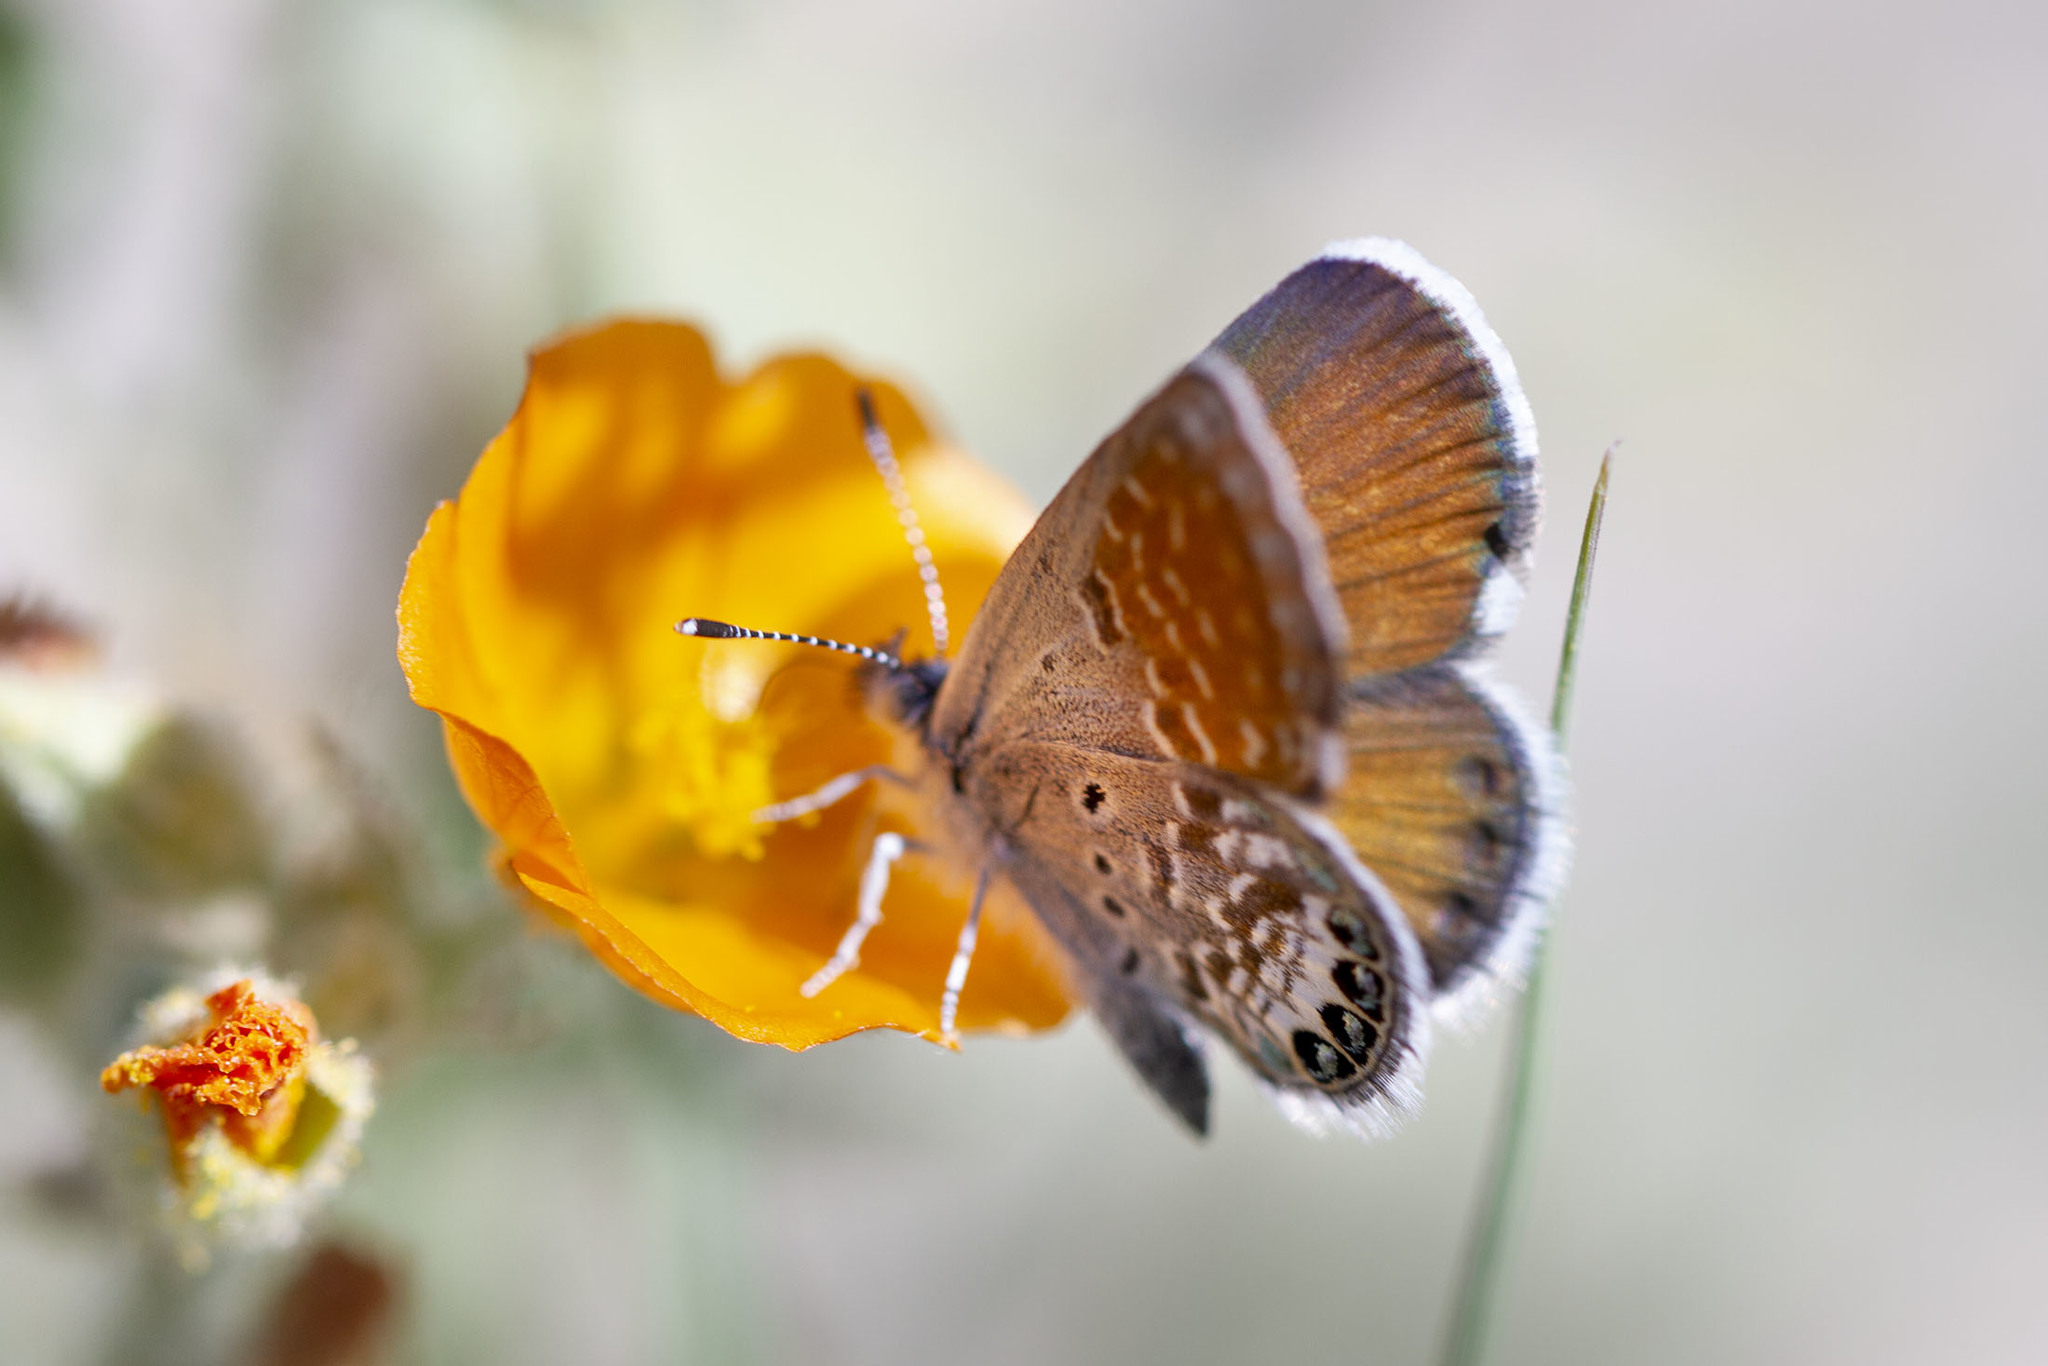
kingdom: Animalia
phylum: Arthropoda
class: Insecta
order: Lepidoptera
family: Lycaenidae
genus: Brephidium
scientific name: Brephidium exilis
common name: Pygmy blue
